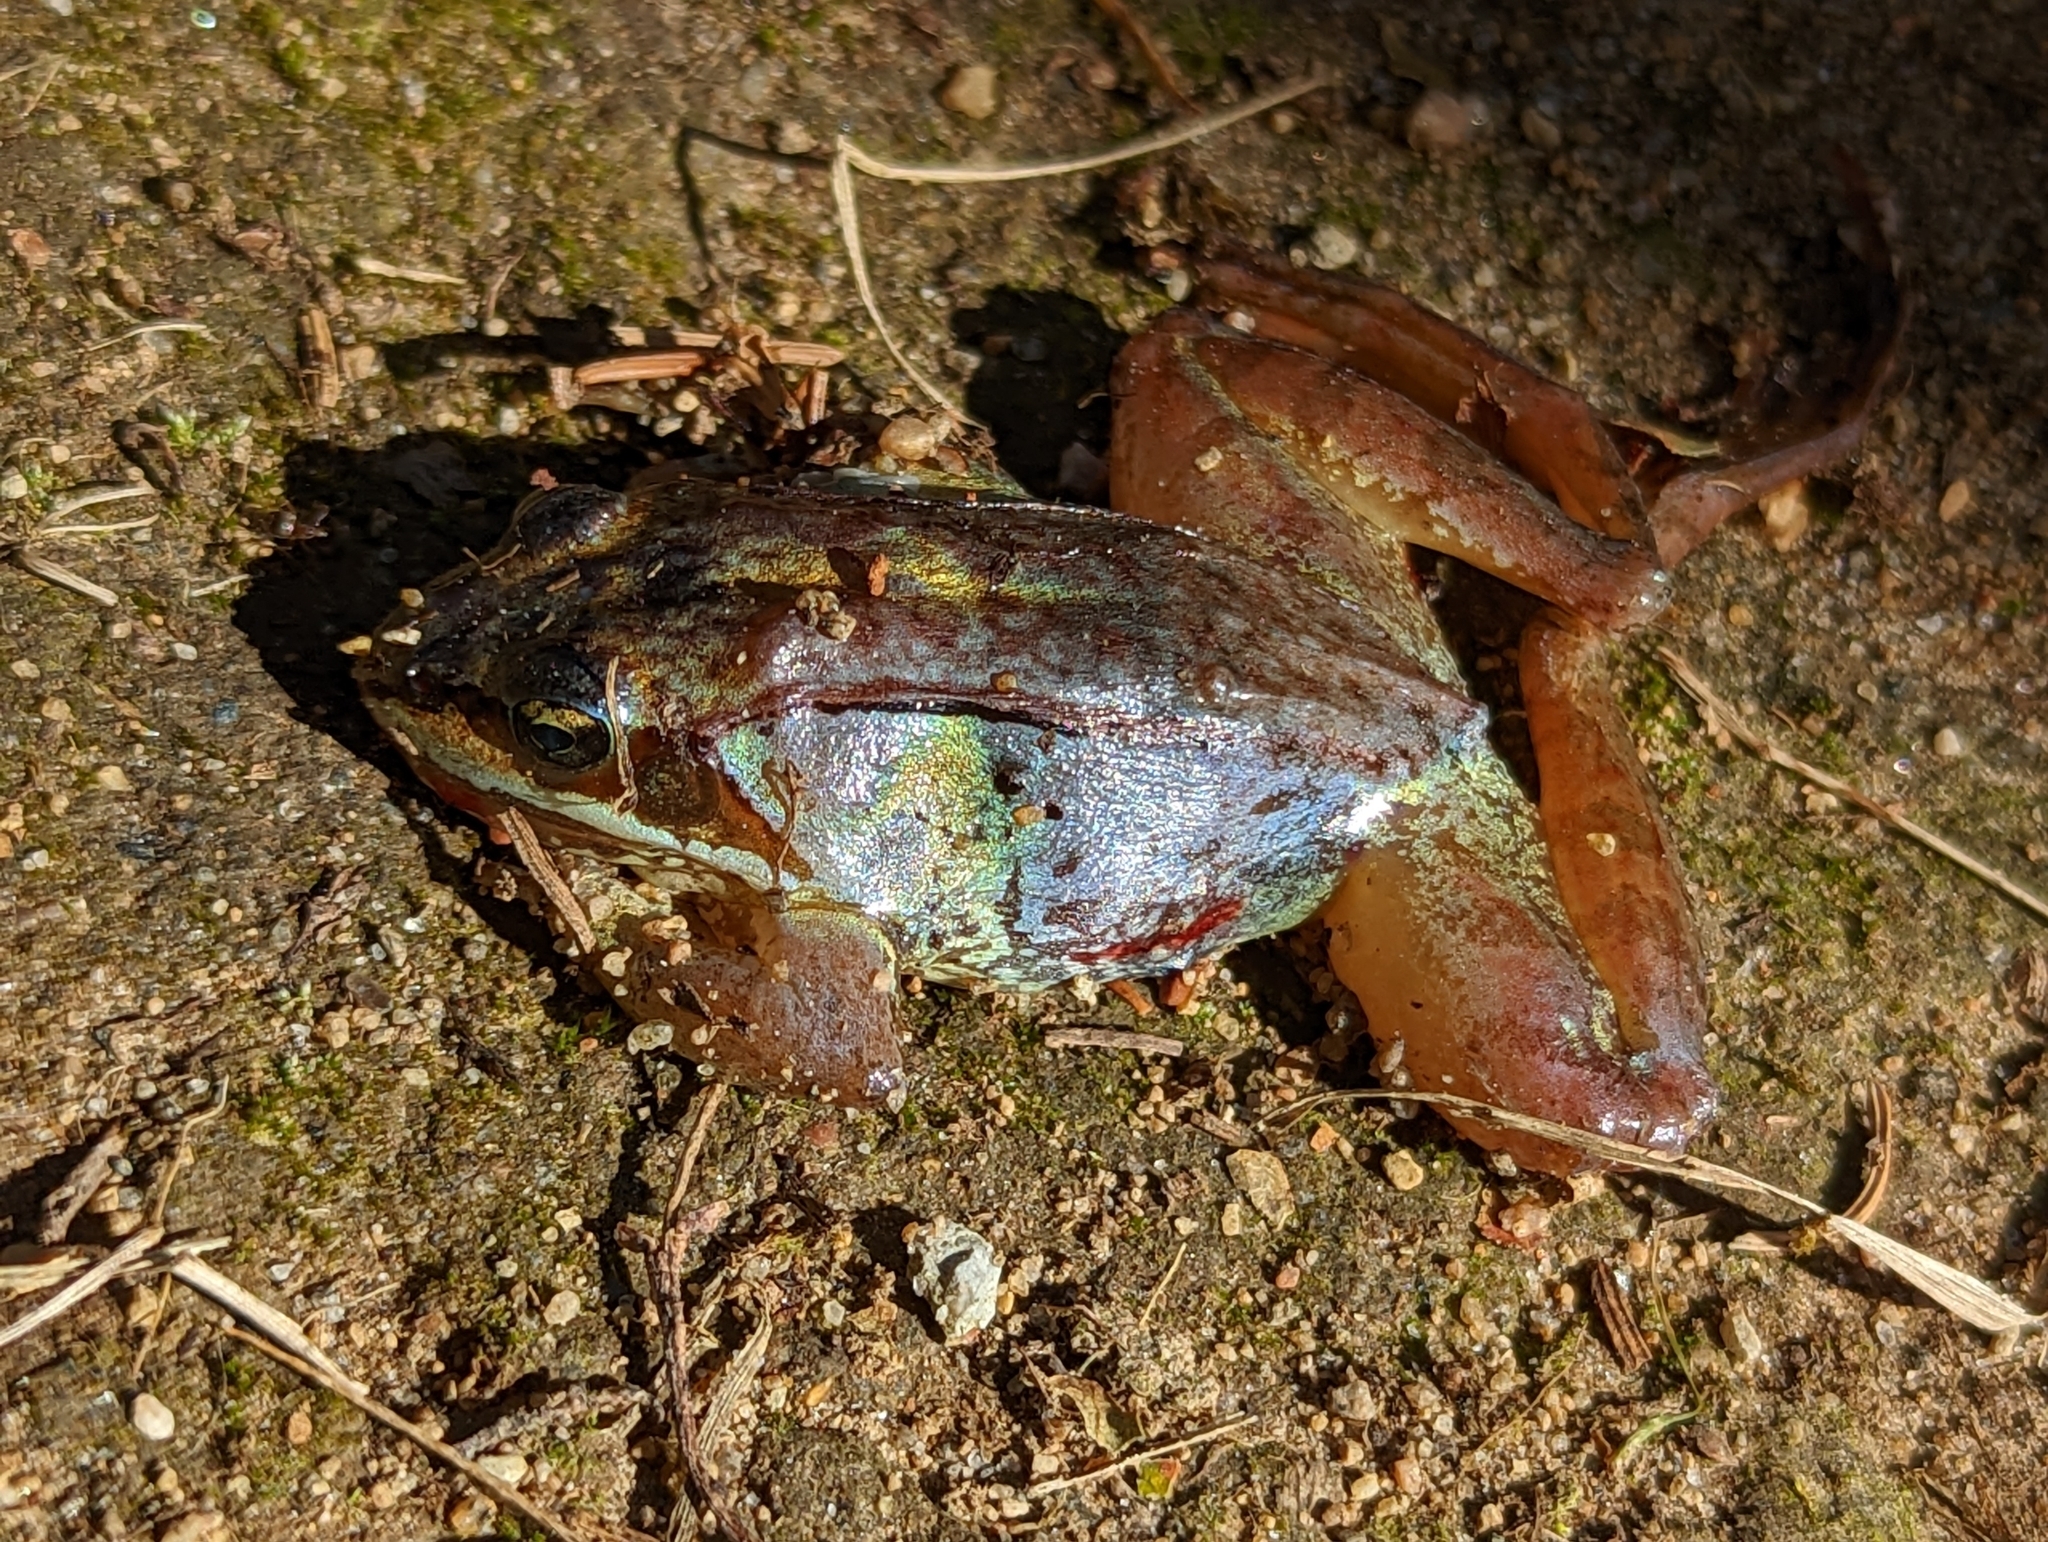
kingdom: Animalia
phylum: Chordata
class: Amphibia
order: Anura
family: Ranidae
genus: Lithobates
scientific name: Lithobates sylvaticus
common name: Wood frog
